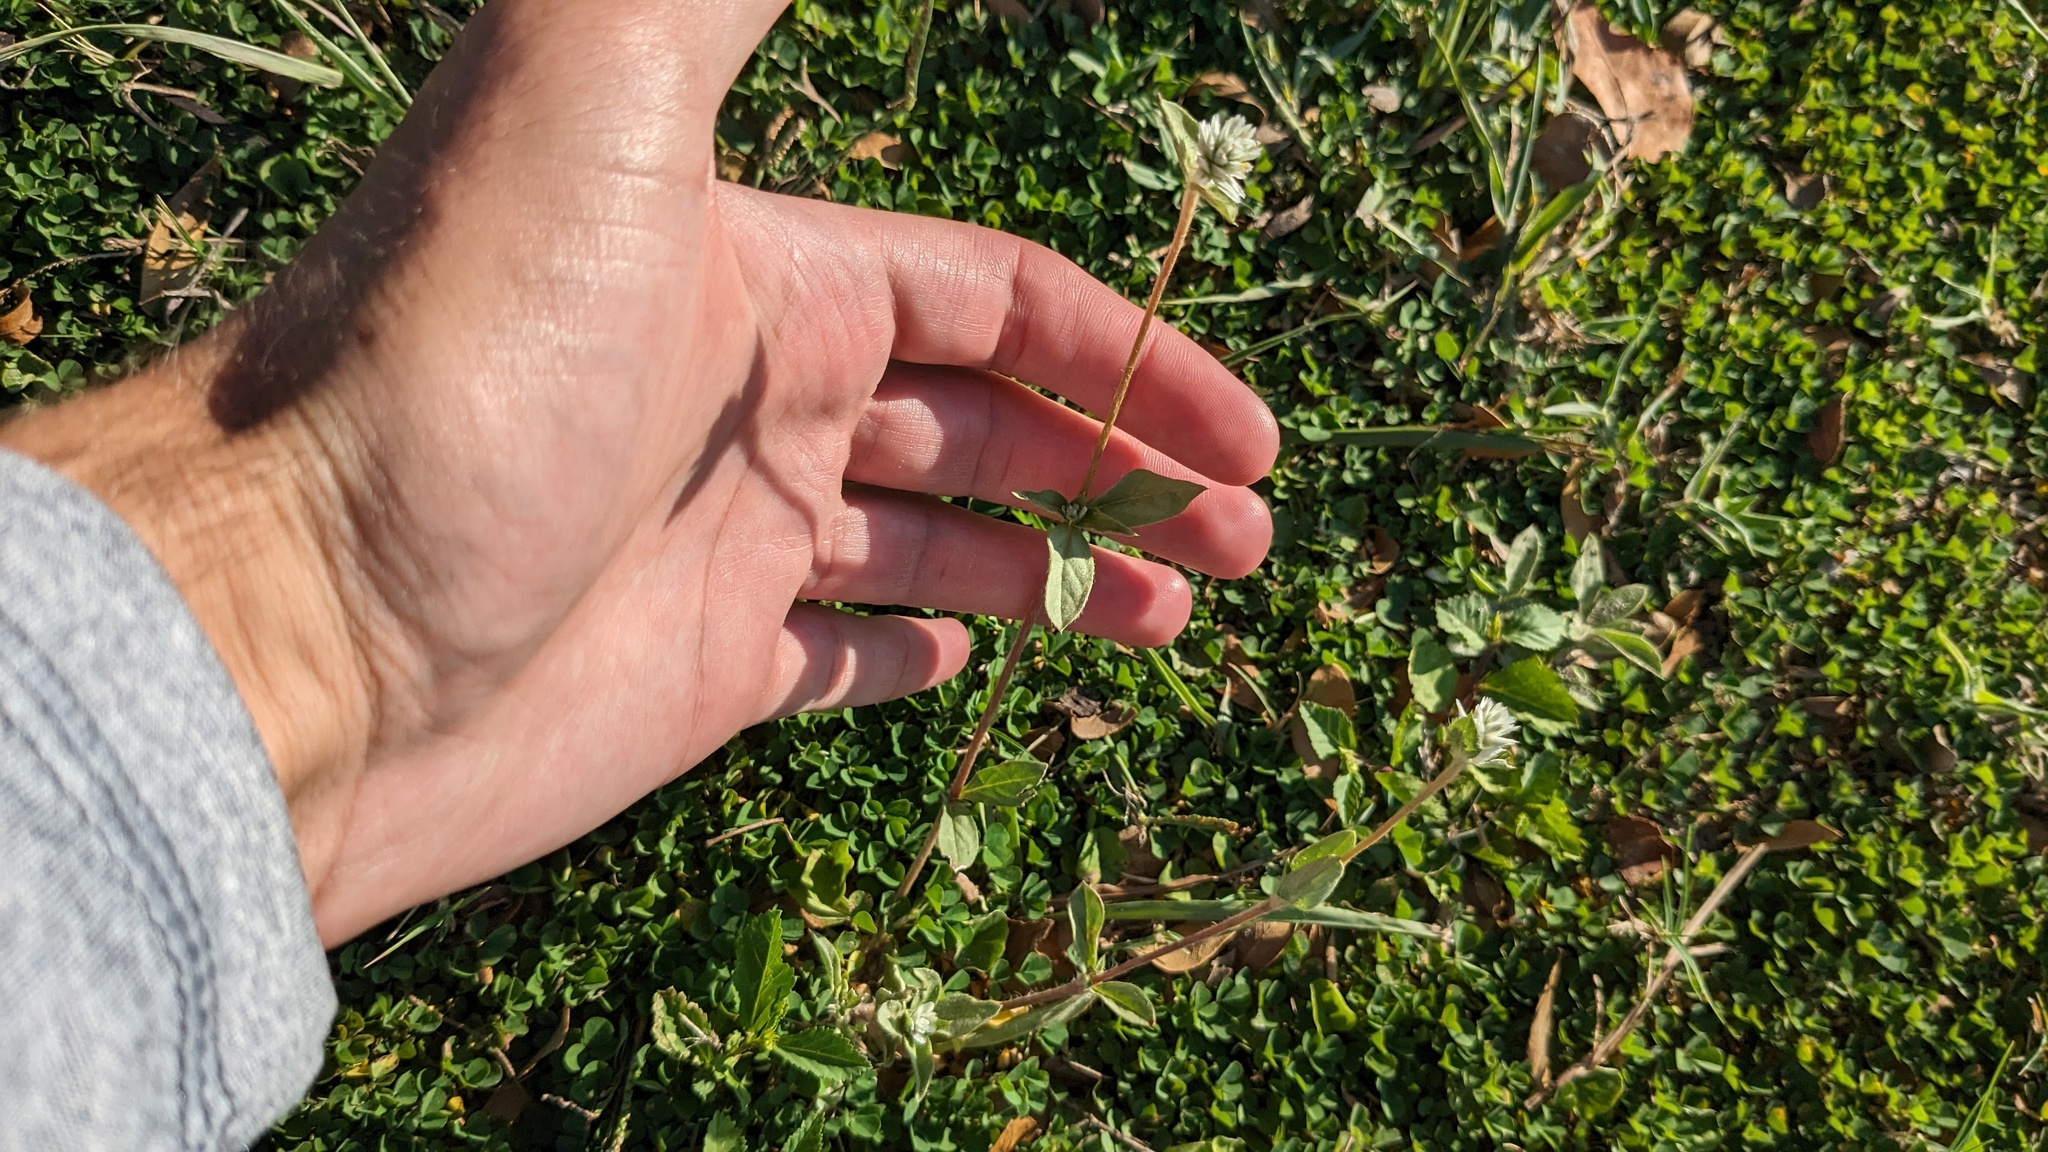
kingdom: Plantae
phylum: Tracheophyta
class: Magnoliopsida
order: Caryophyllales
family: Amaranthaceae
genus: Gomphrena
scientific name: Gomphrena serrata
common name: Arrasa con todo
